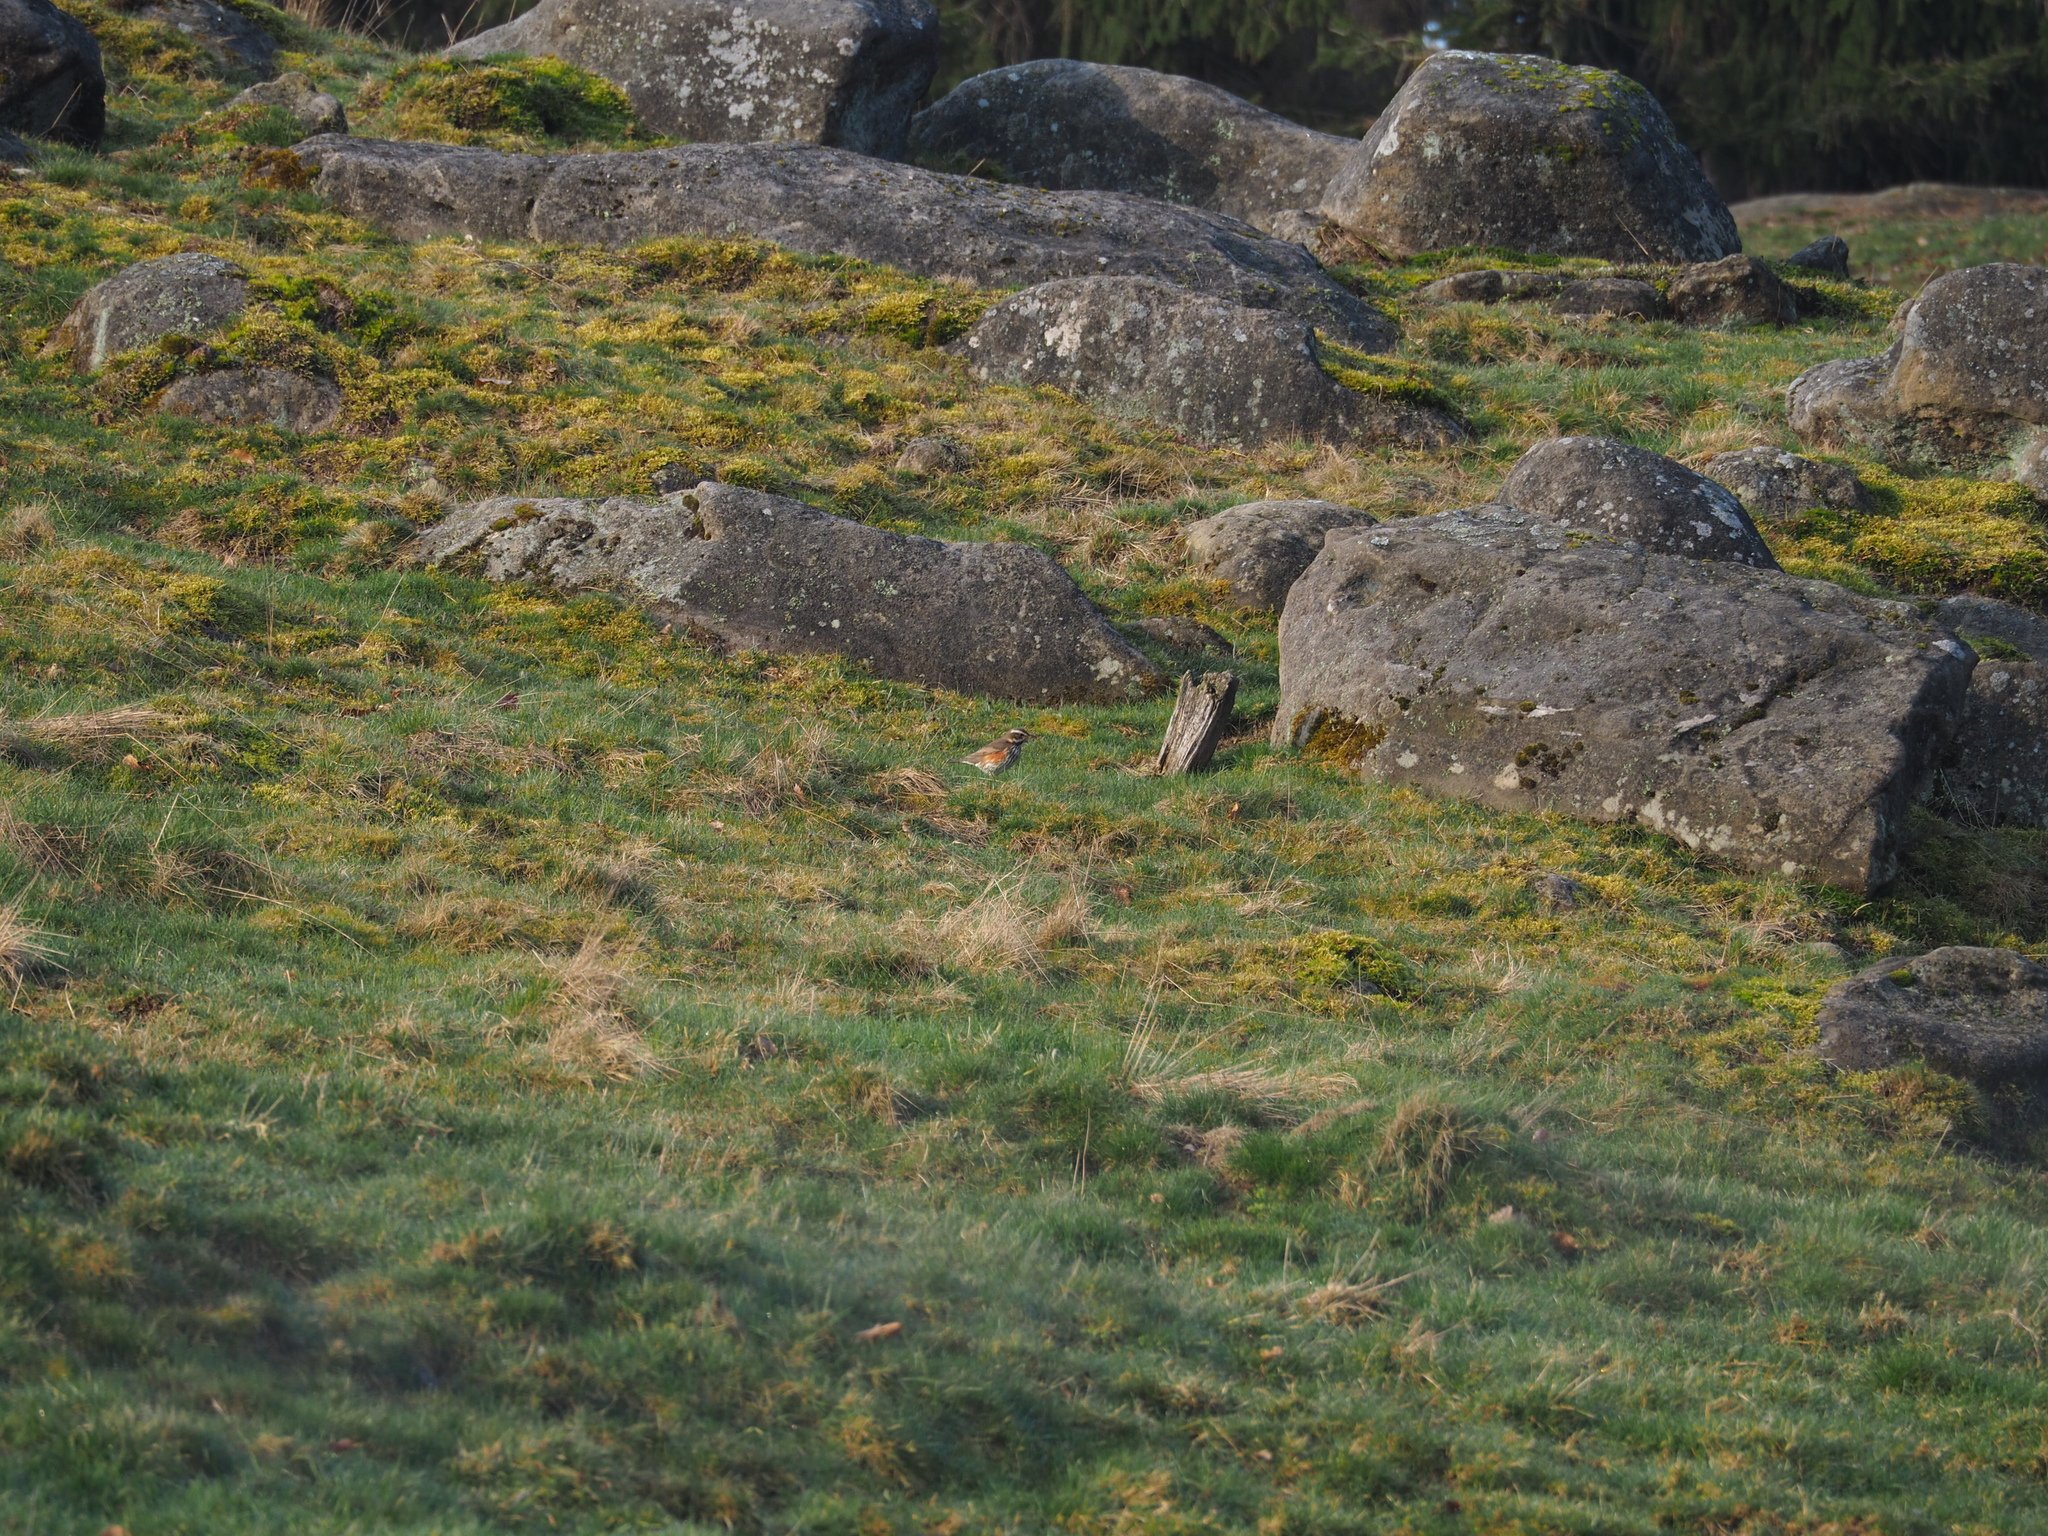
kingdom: Animalia
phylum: Chordata
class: Aves
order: Passeriformes
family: Turdidae
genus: Turdus
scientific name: Turdus iliacus
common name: Redwing
